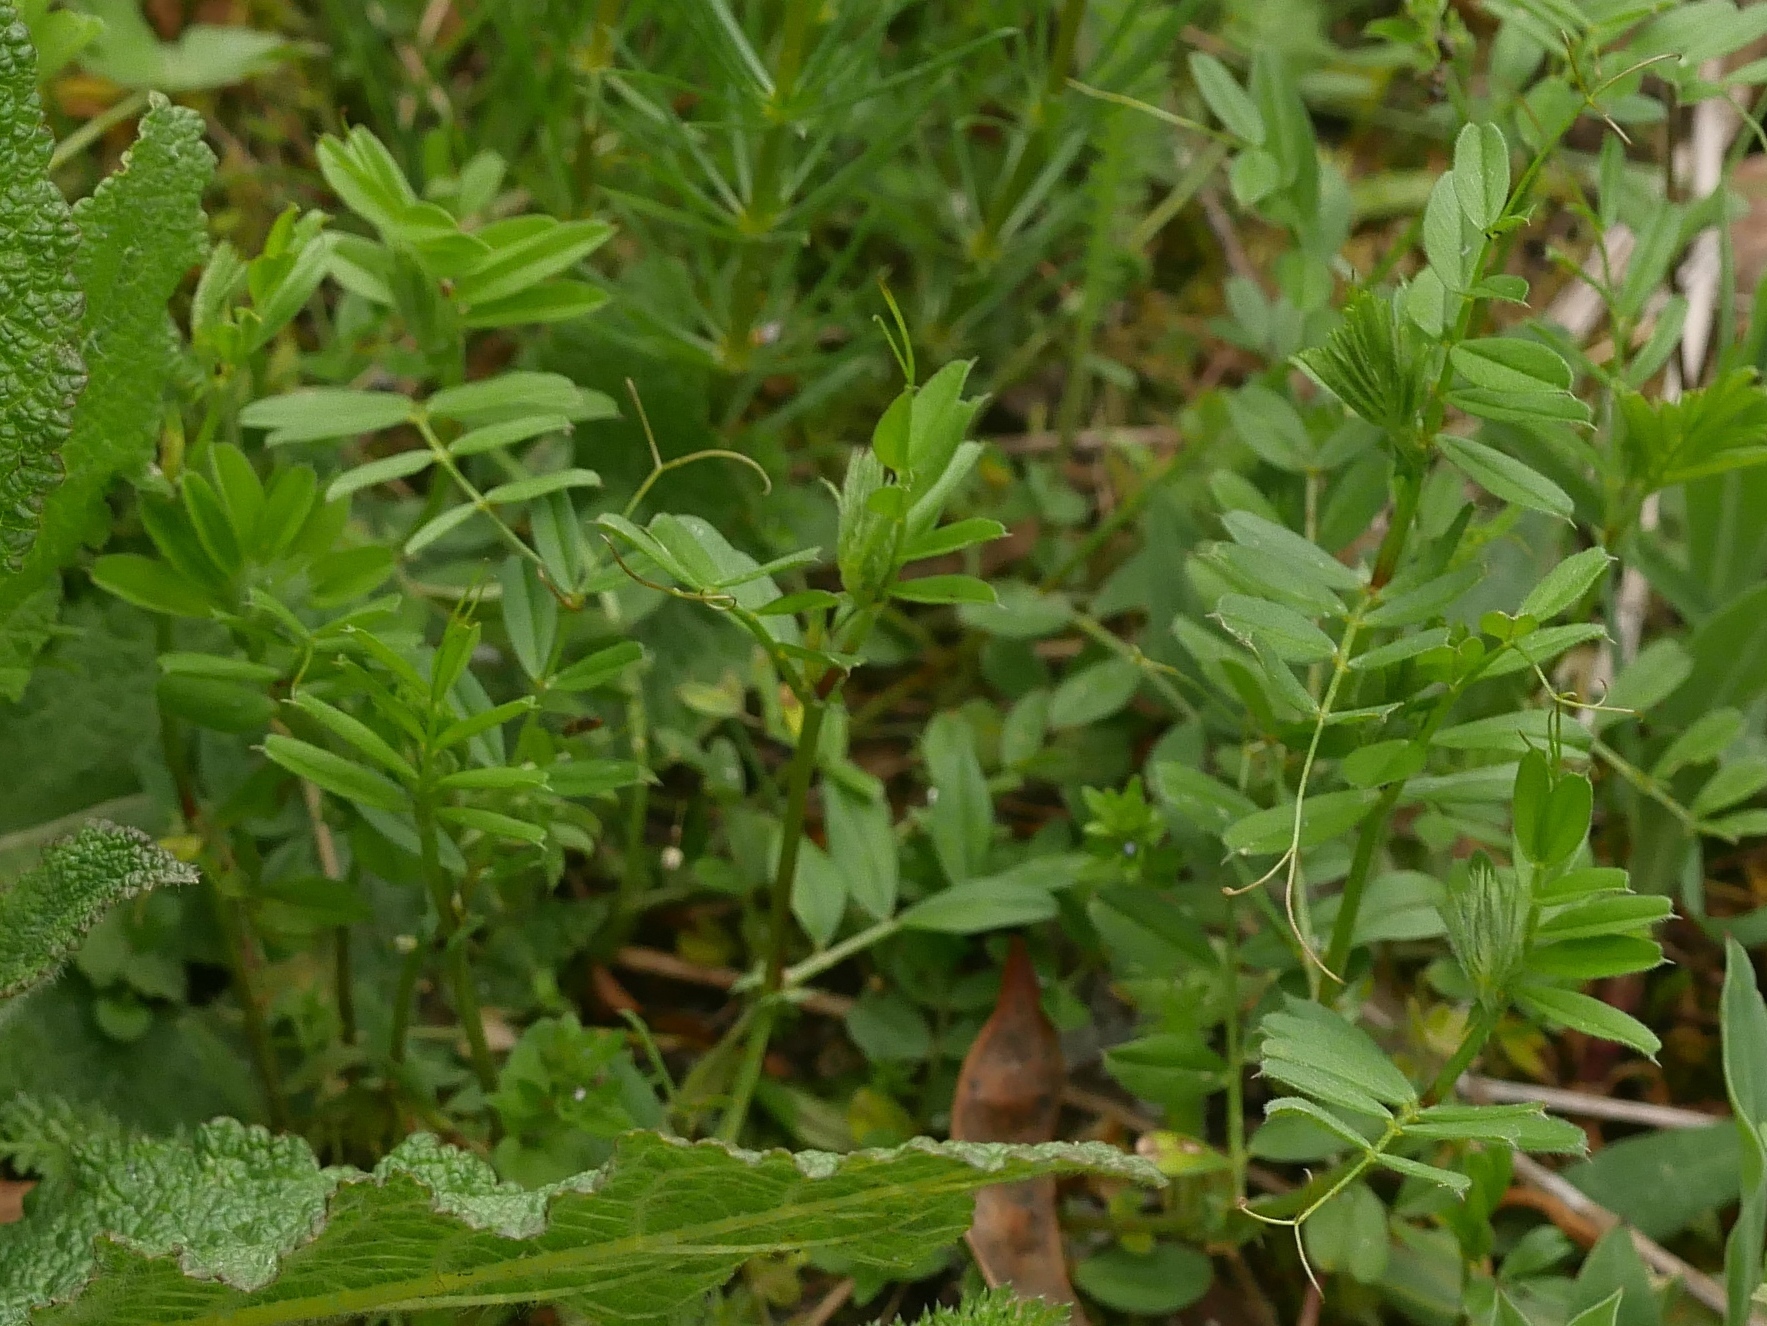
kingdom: Plantae
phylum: Tracheophyta
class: Magnoliopsida
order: Fabales
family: Fabaceae
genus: Vicia
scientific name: Vicia sativa
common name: Garden vetch
